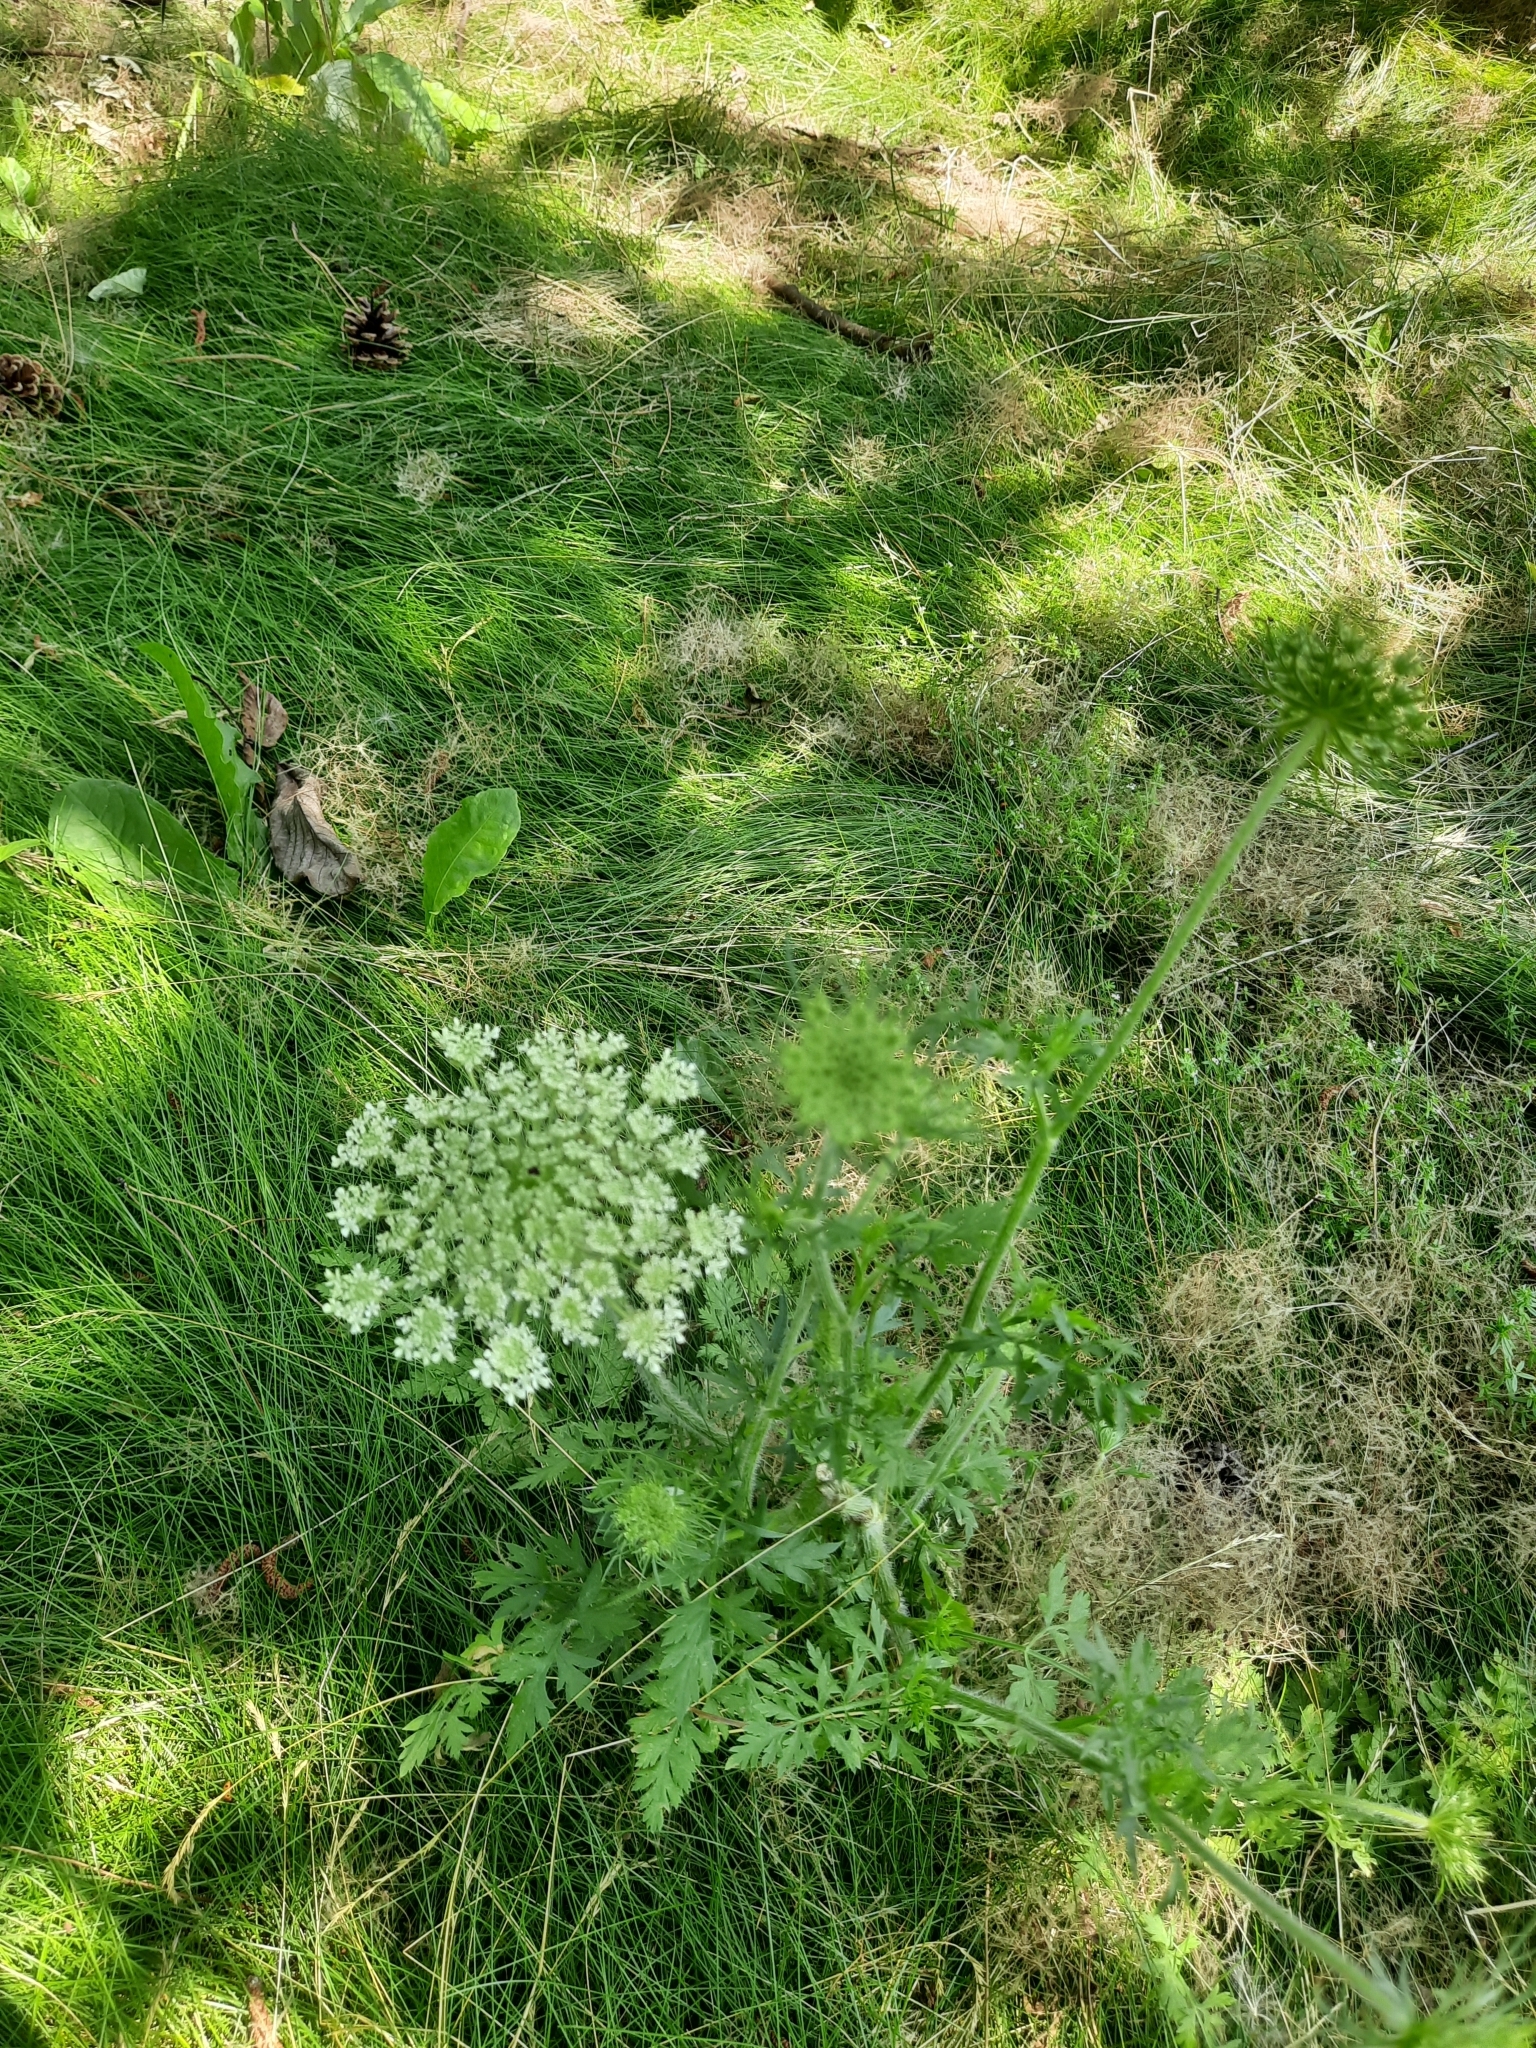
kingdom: Plantae
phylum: Tracheophyta
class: Magnoliopsida
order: Apiales
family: Apiaceae
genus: Daucus
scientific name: Daucus carota
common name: Wild carrot
